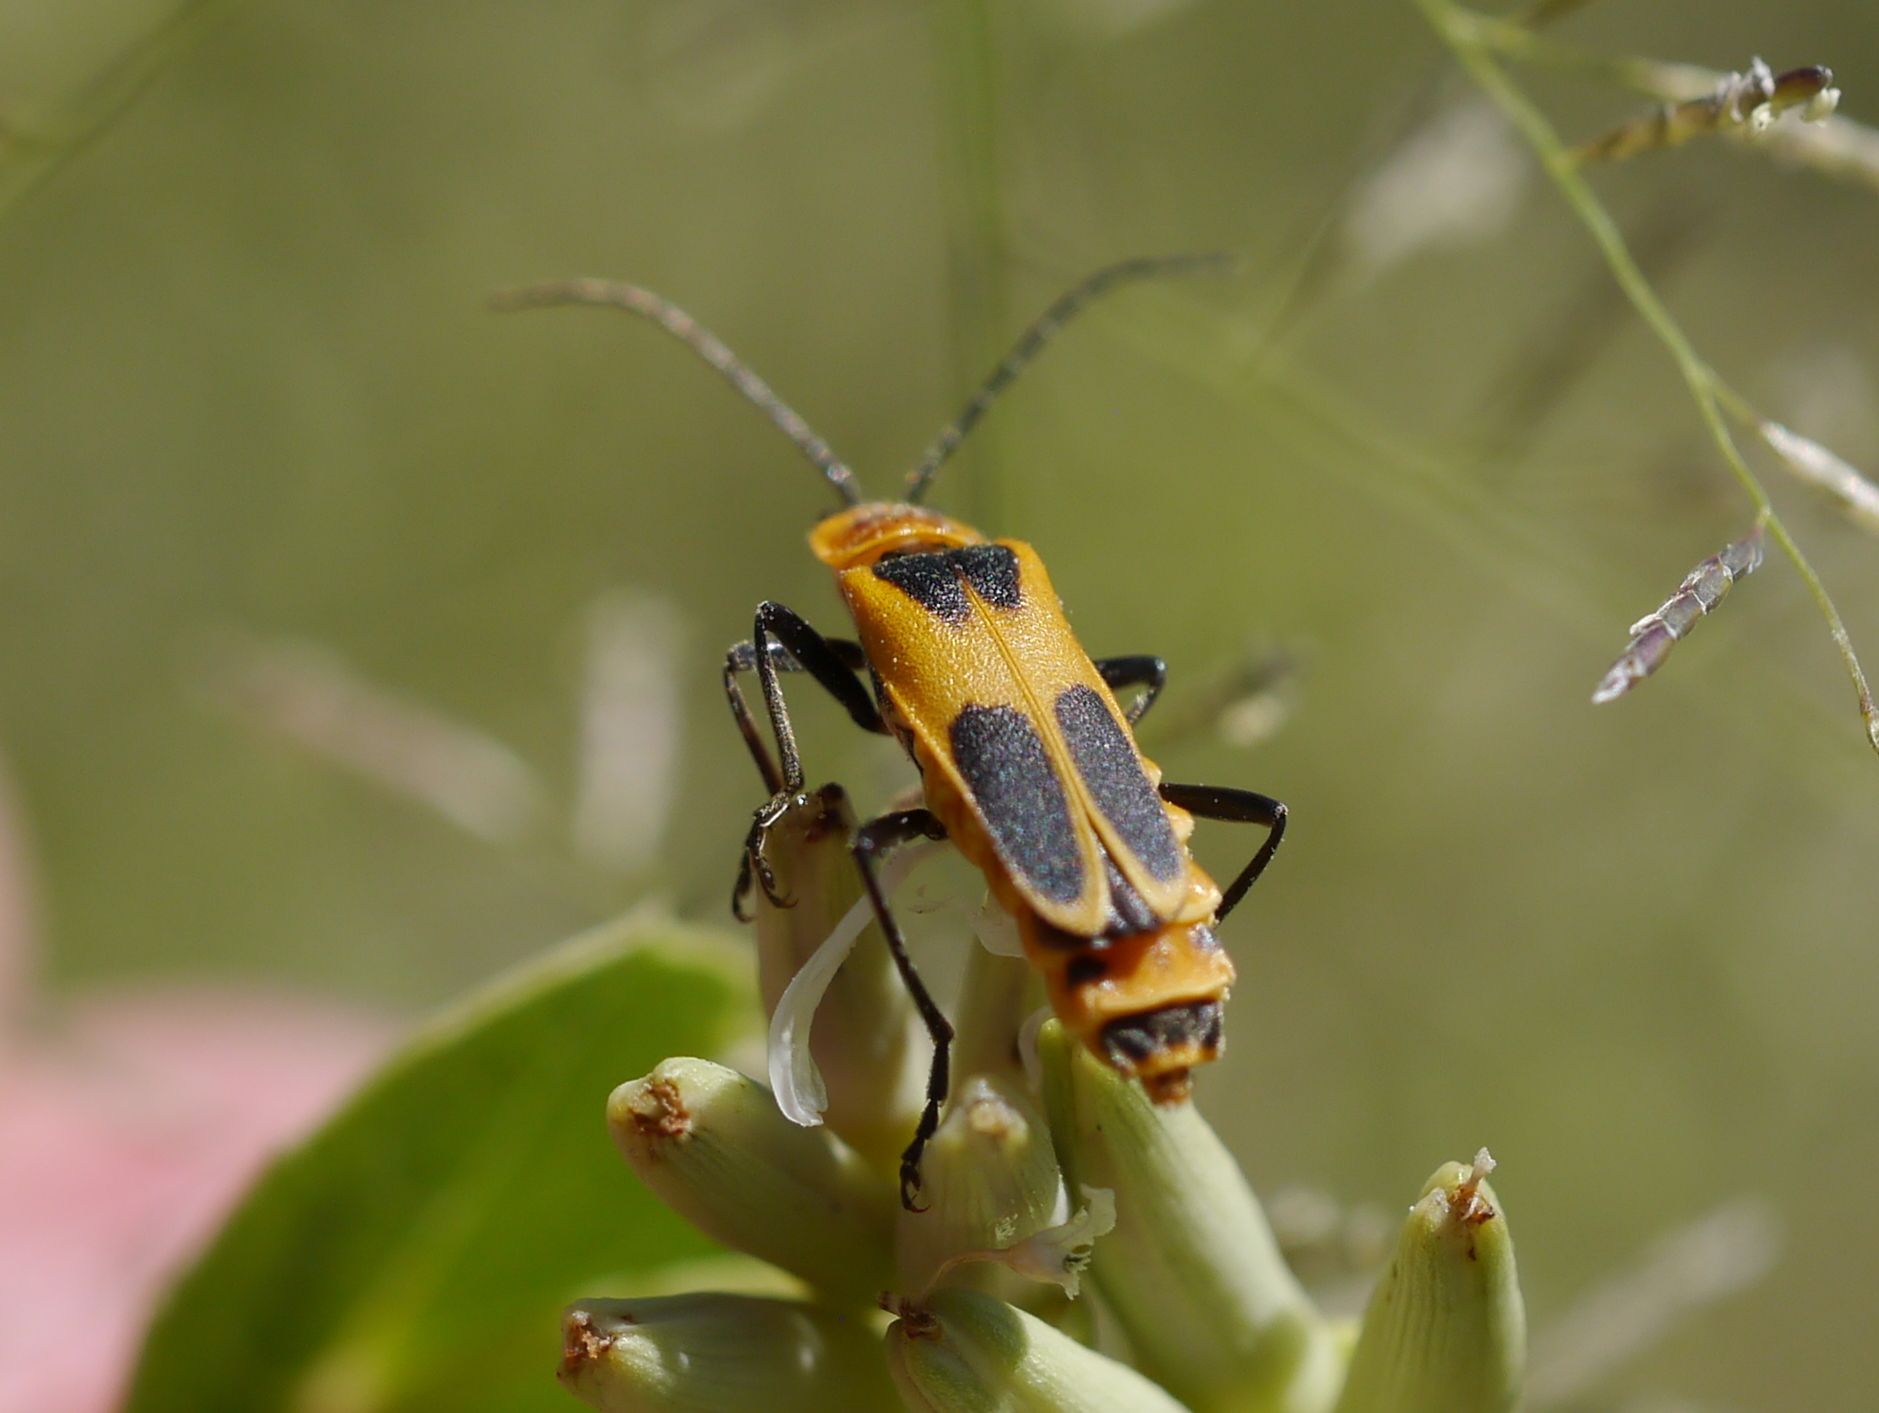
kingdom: Animalia
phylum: Arthropoda
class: Insecta
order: Coleoptera
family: Cantharidae
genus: Chauliognathus
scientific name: Chauliognathus omissus
